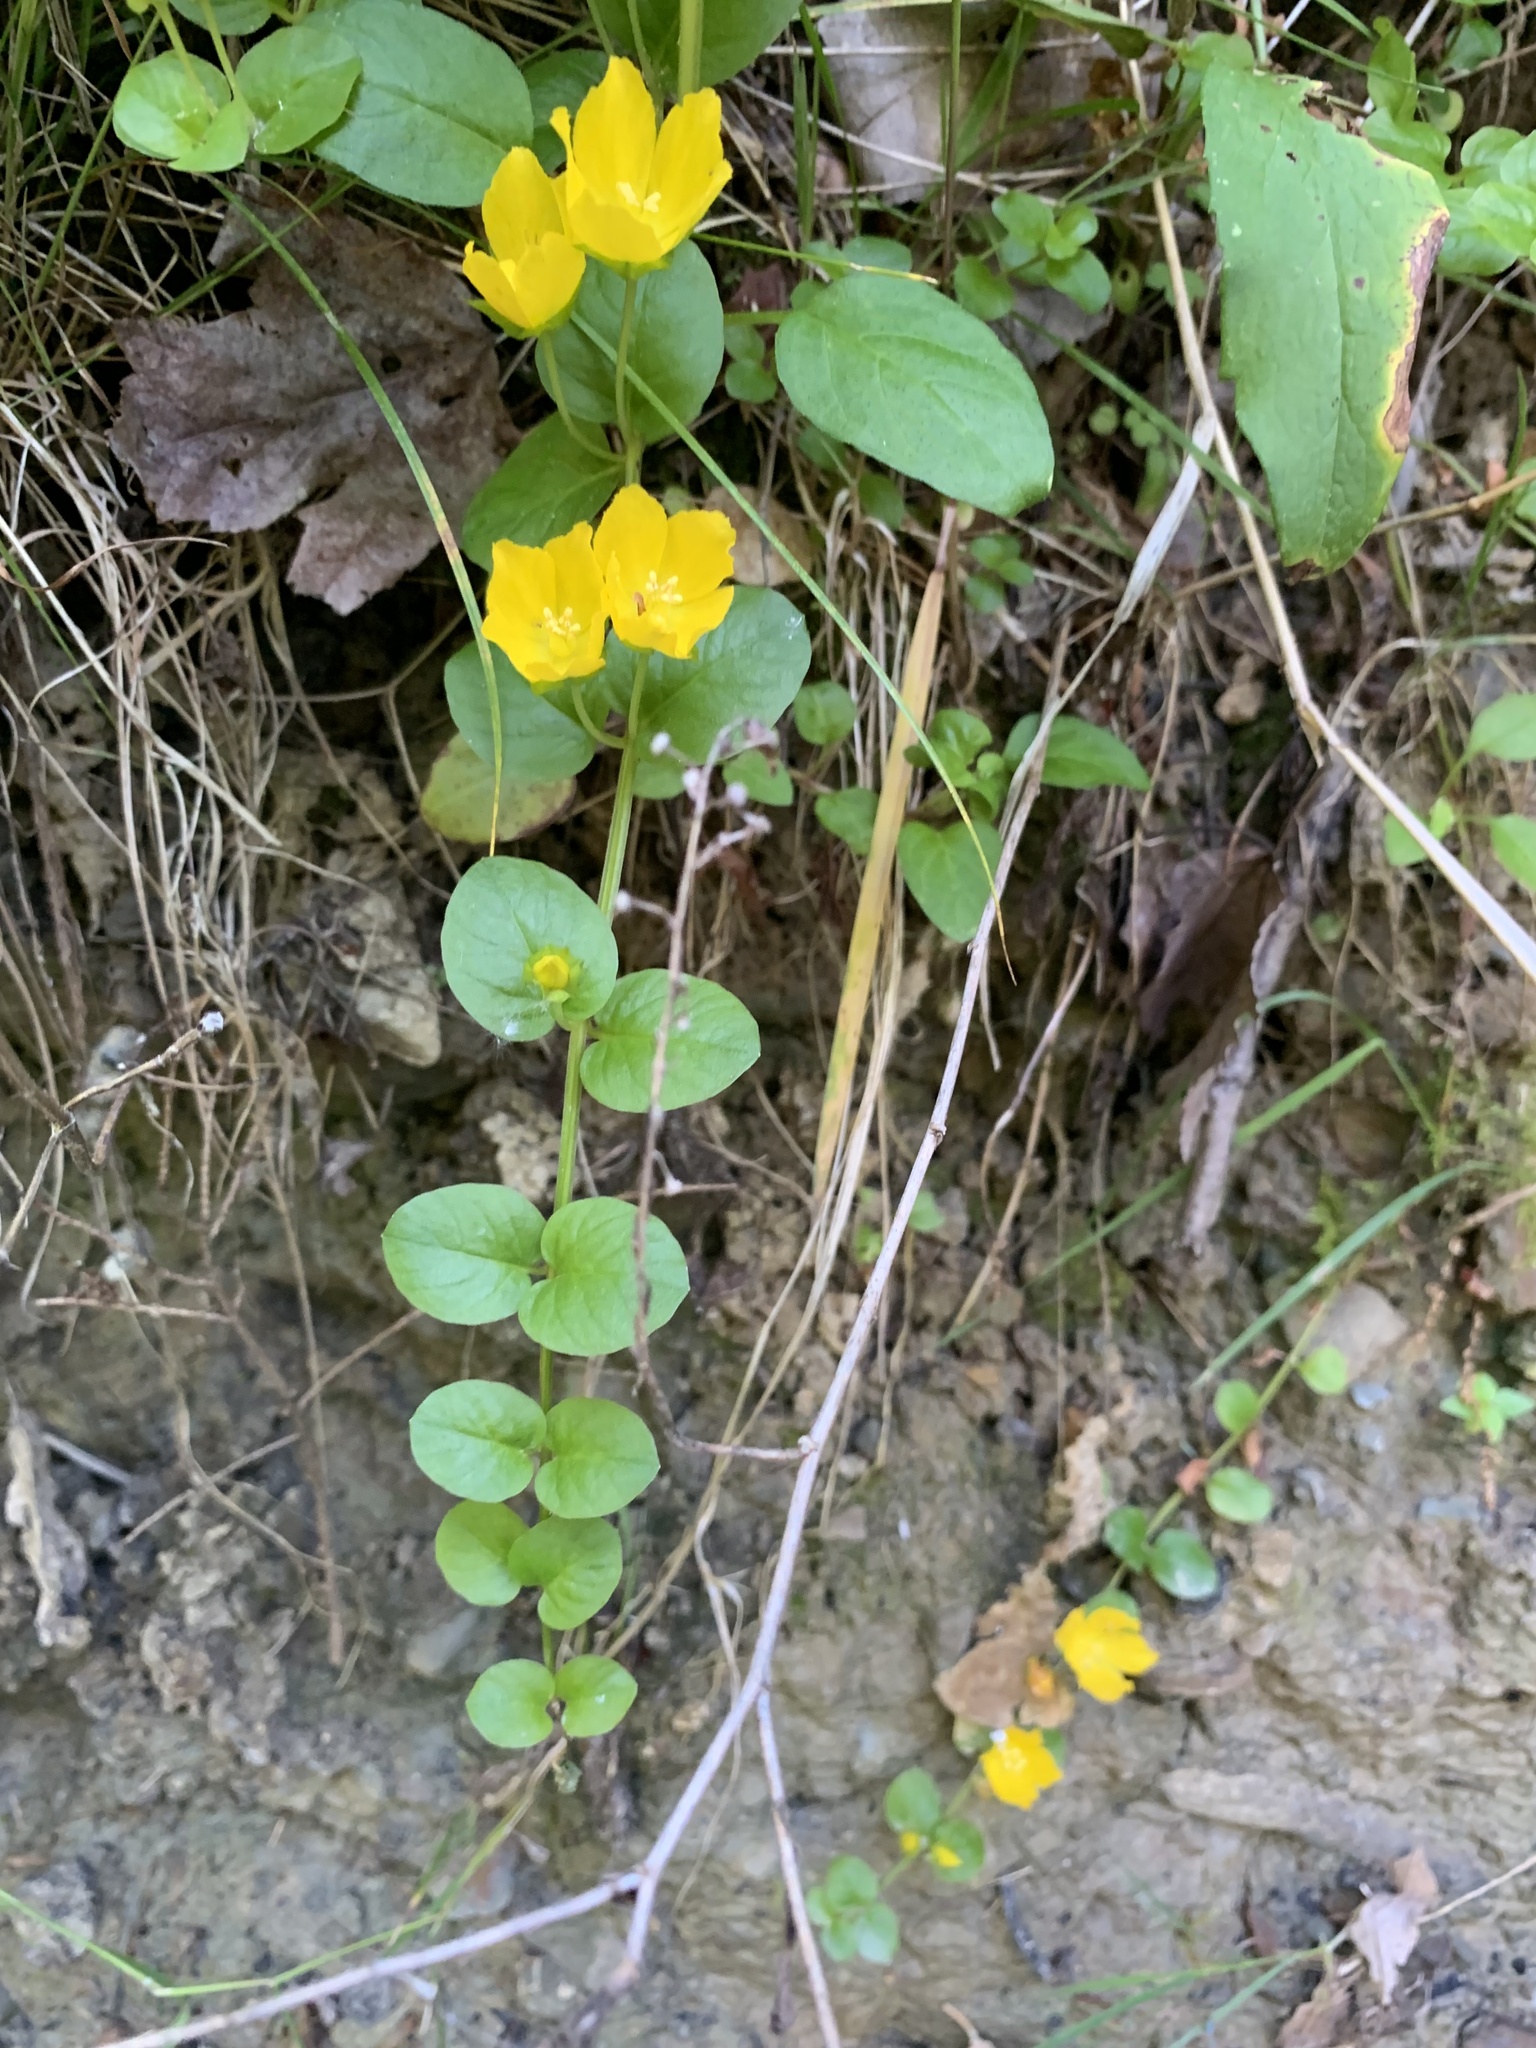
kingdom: Plantae
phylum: Tracheophyta
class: Magnoliopsida
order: Ericales
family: Primulaceae
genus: Lysimachia
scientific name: Lysimachia nummularia
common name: Moneywort
